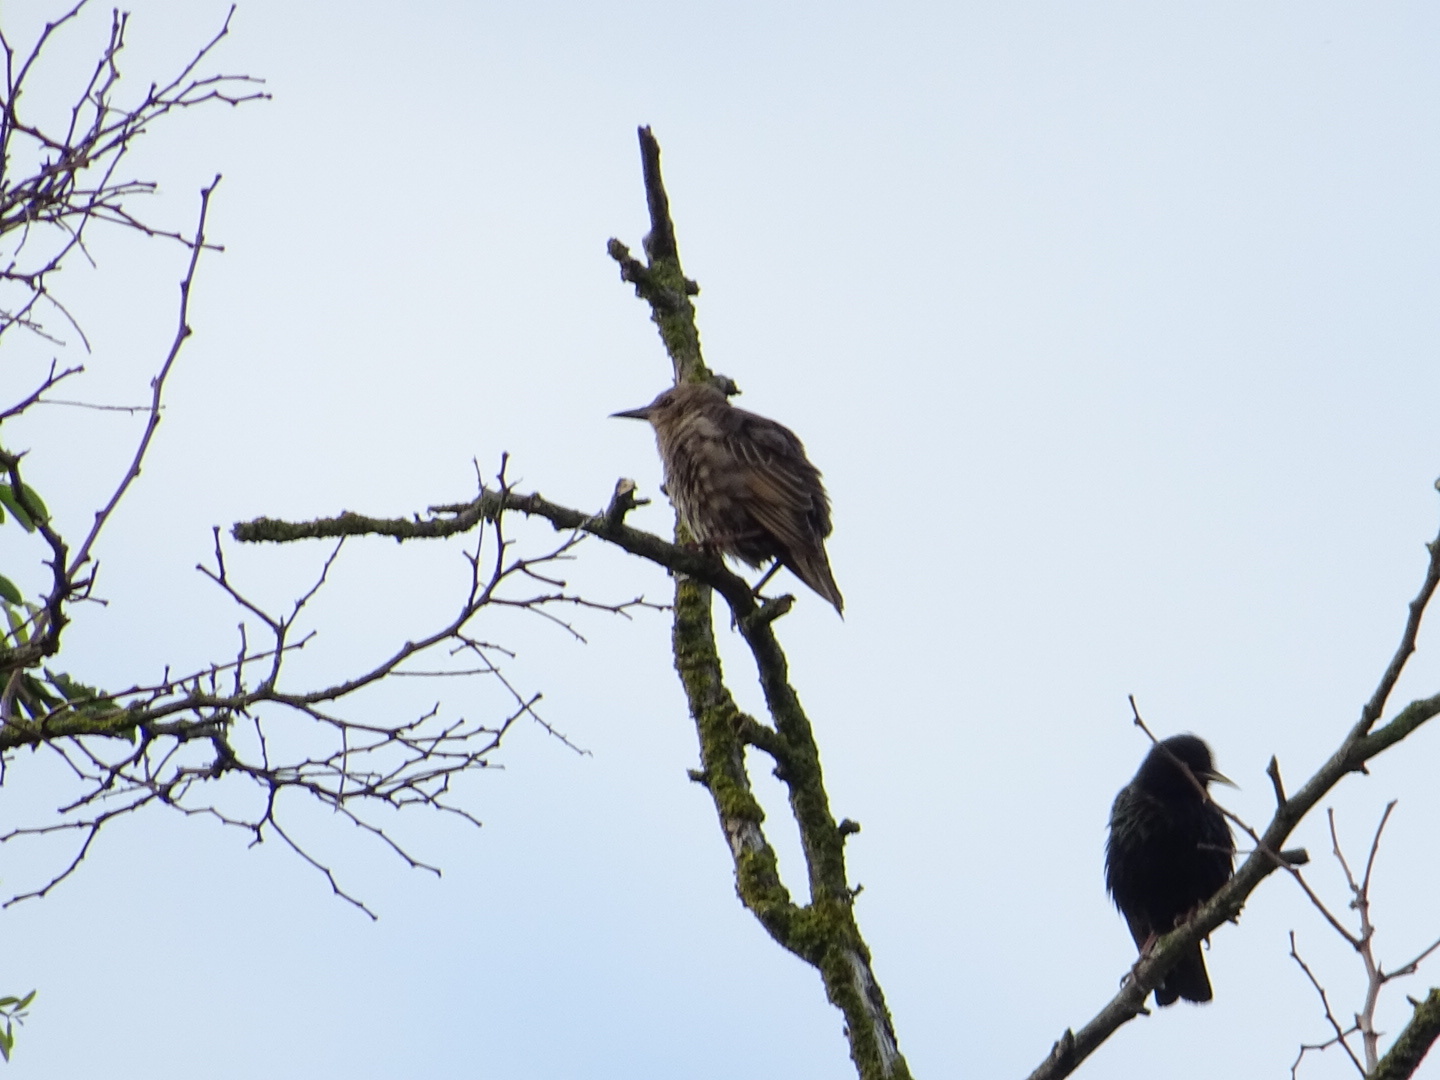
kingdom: Animalia
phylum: Chordata
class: Aves
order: Passeriformes
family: Sturnidae
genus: Sturnus
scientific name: Sturnus vulgaris
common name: Common starling
